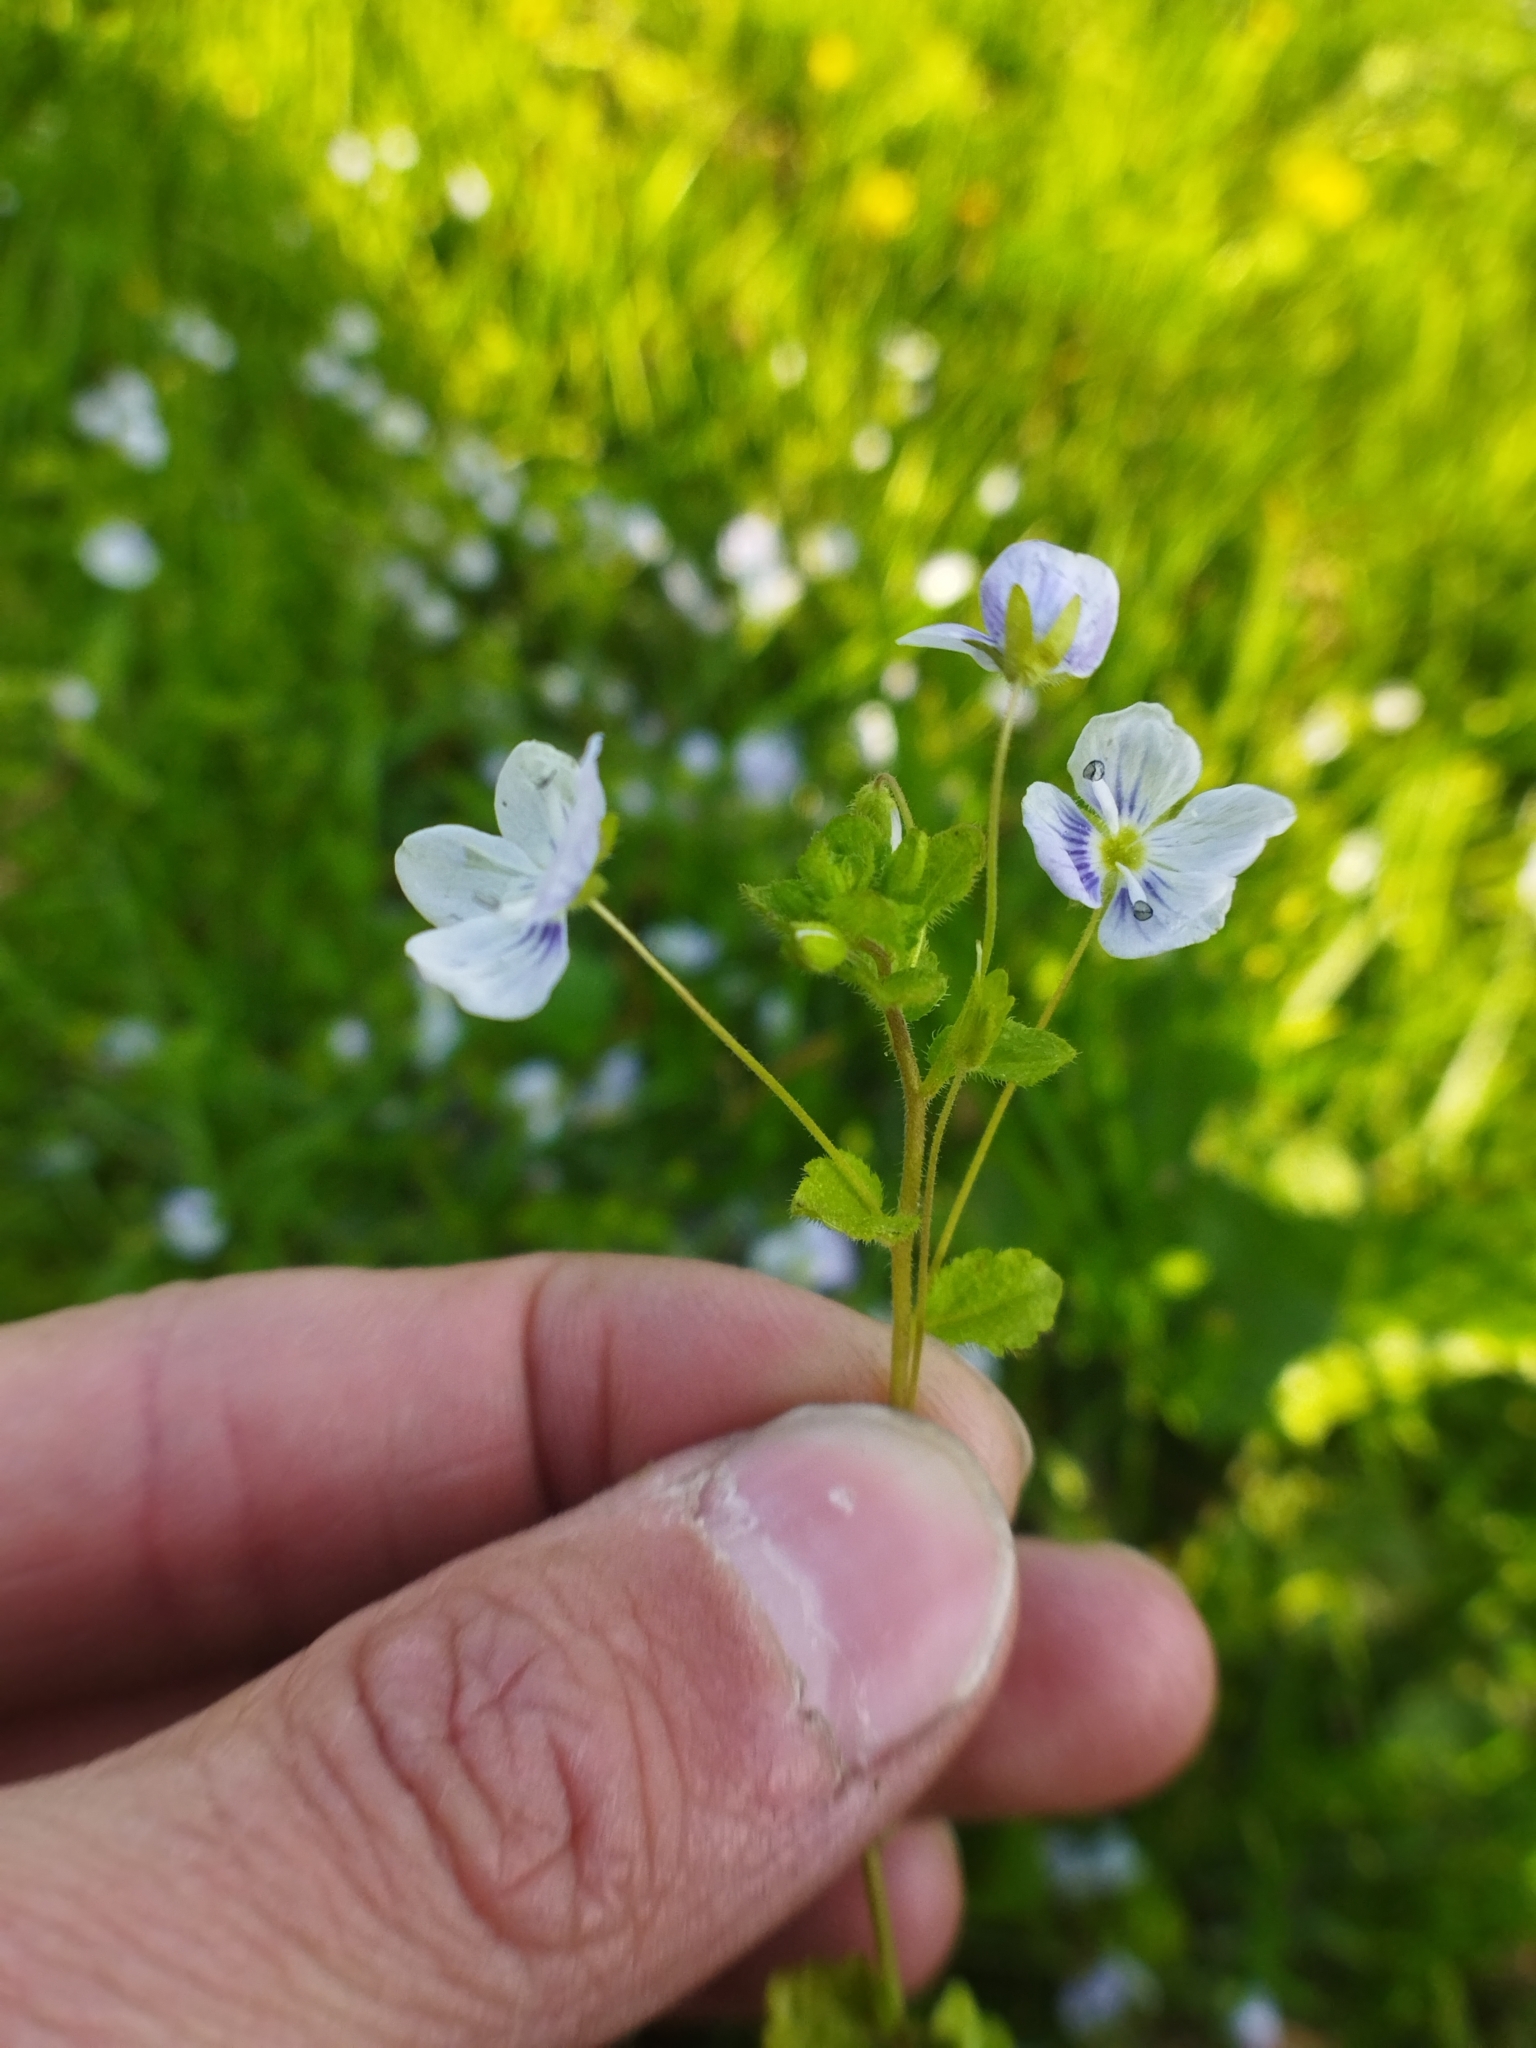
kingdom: Plantae
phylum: Tracheophyta
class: Magnoliopsida
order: Lamiales
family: Plantaginaceae
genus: Veronica
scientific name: Veronica filiformis
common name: Slender speedwell
